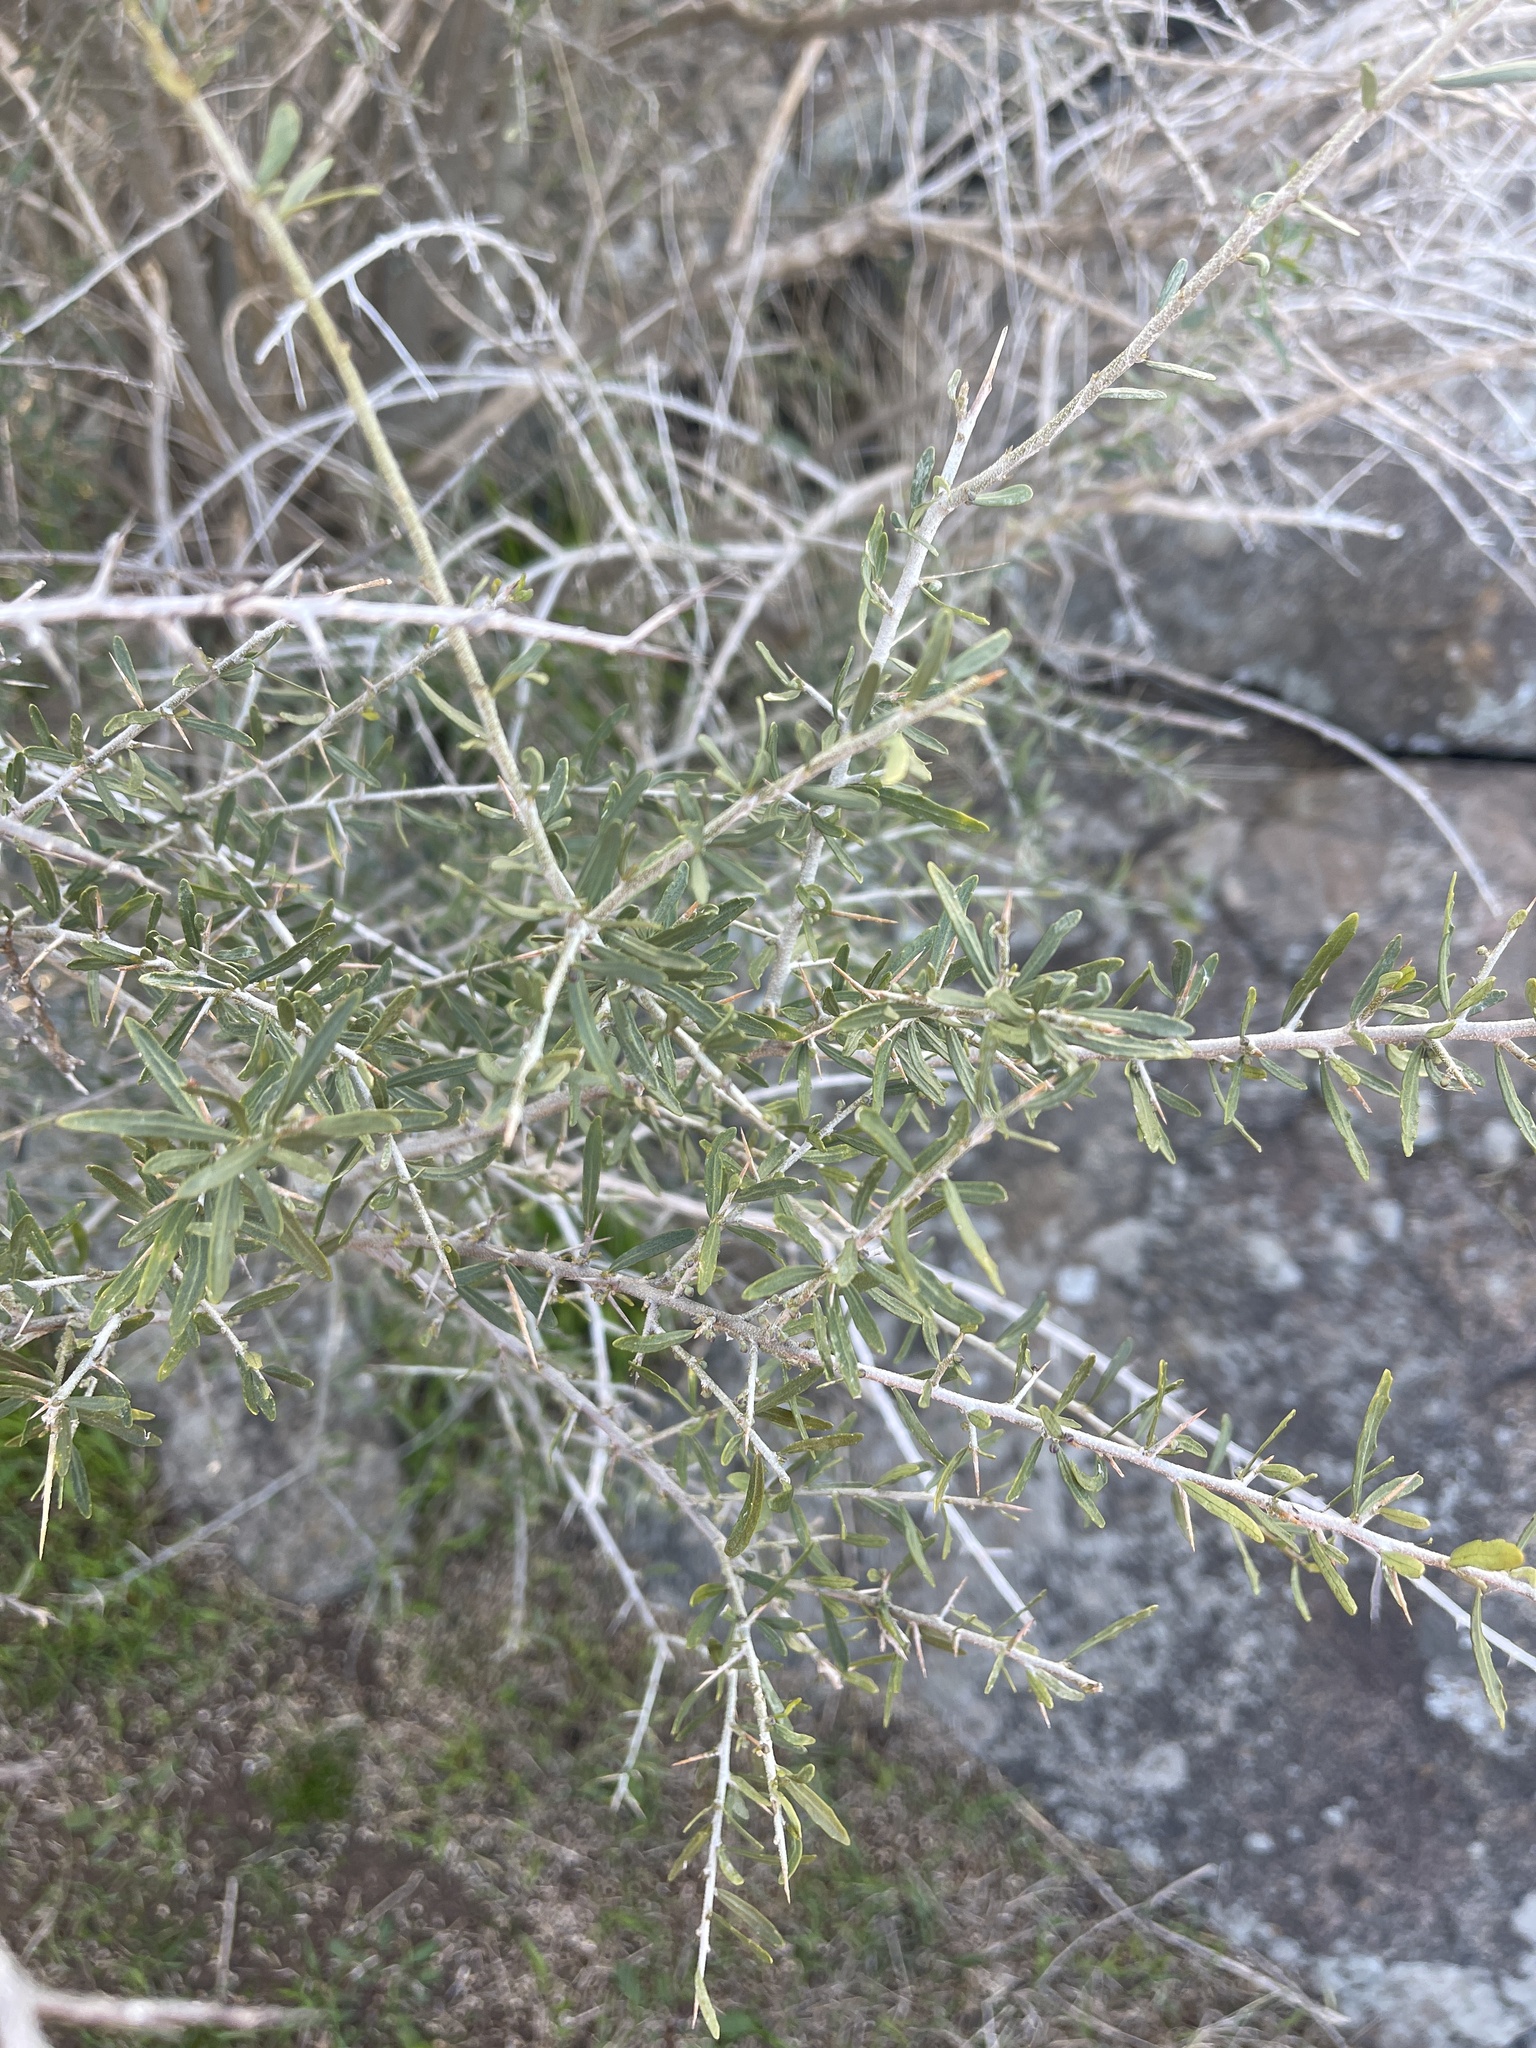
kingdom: Plantae
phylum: Tracheophyta
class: Magnoliopsida
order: Malpighiales
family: Violaceae
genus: Melicytus
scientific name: Melicytus dentatus
